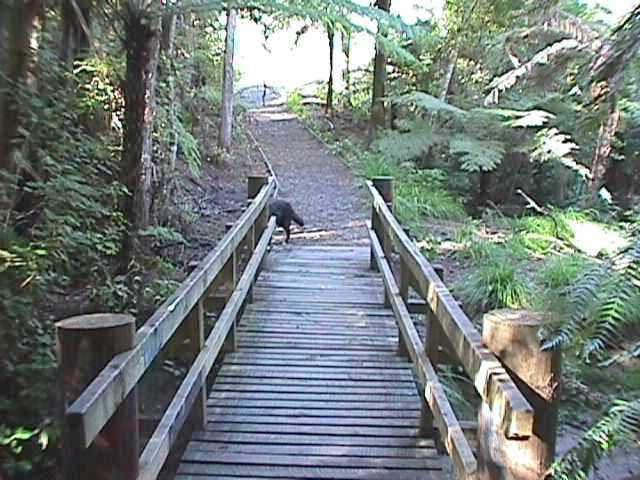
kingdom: Plantae
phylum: Tracheophyta
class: Pinopsida
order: Pinales
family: Phyllocladaceae
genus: Phyllocladus
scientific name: Phyllocladus trichomanoides
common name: Celery pine
